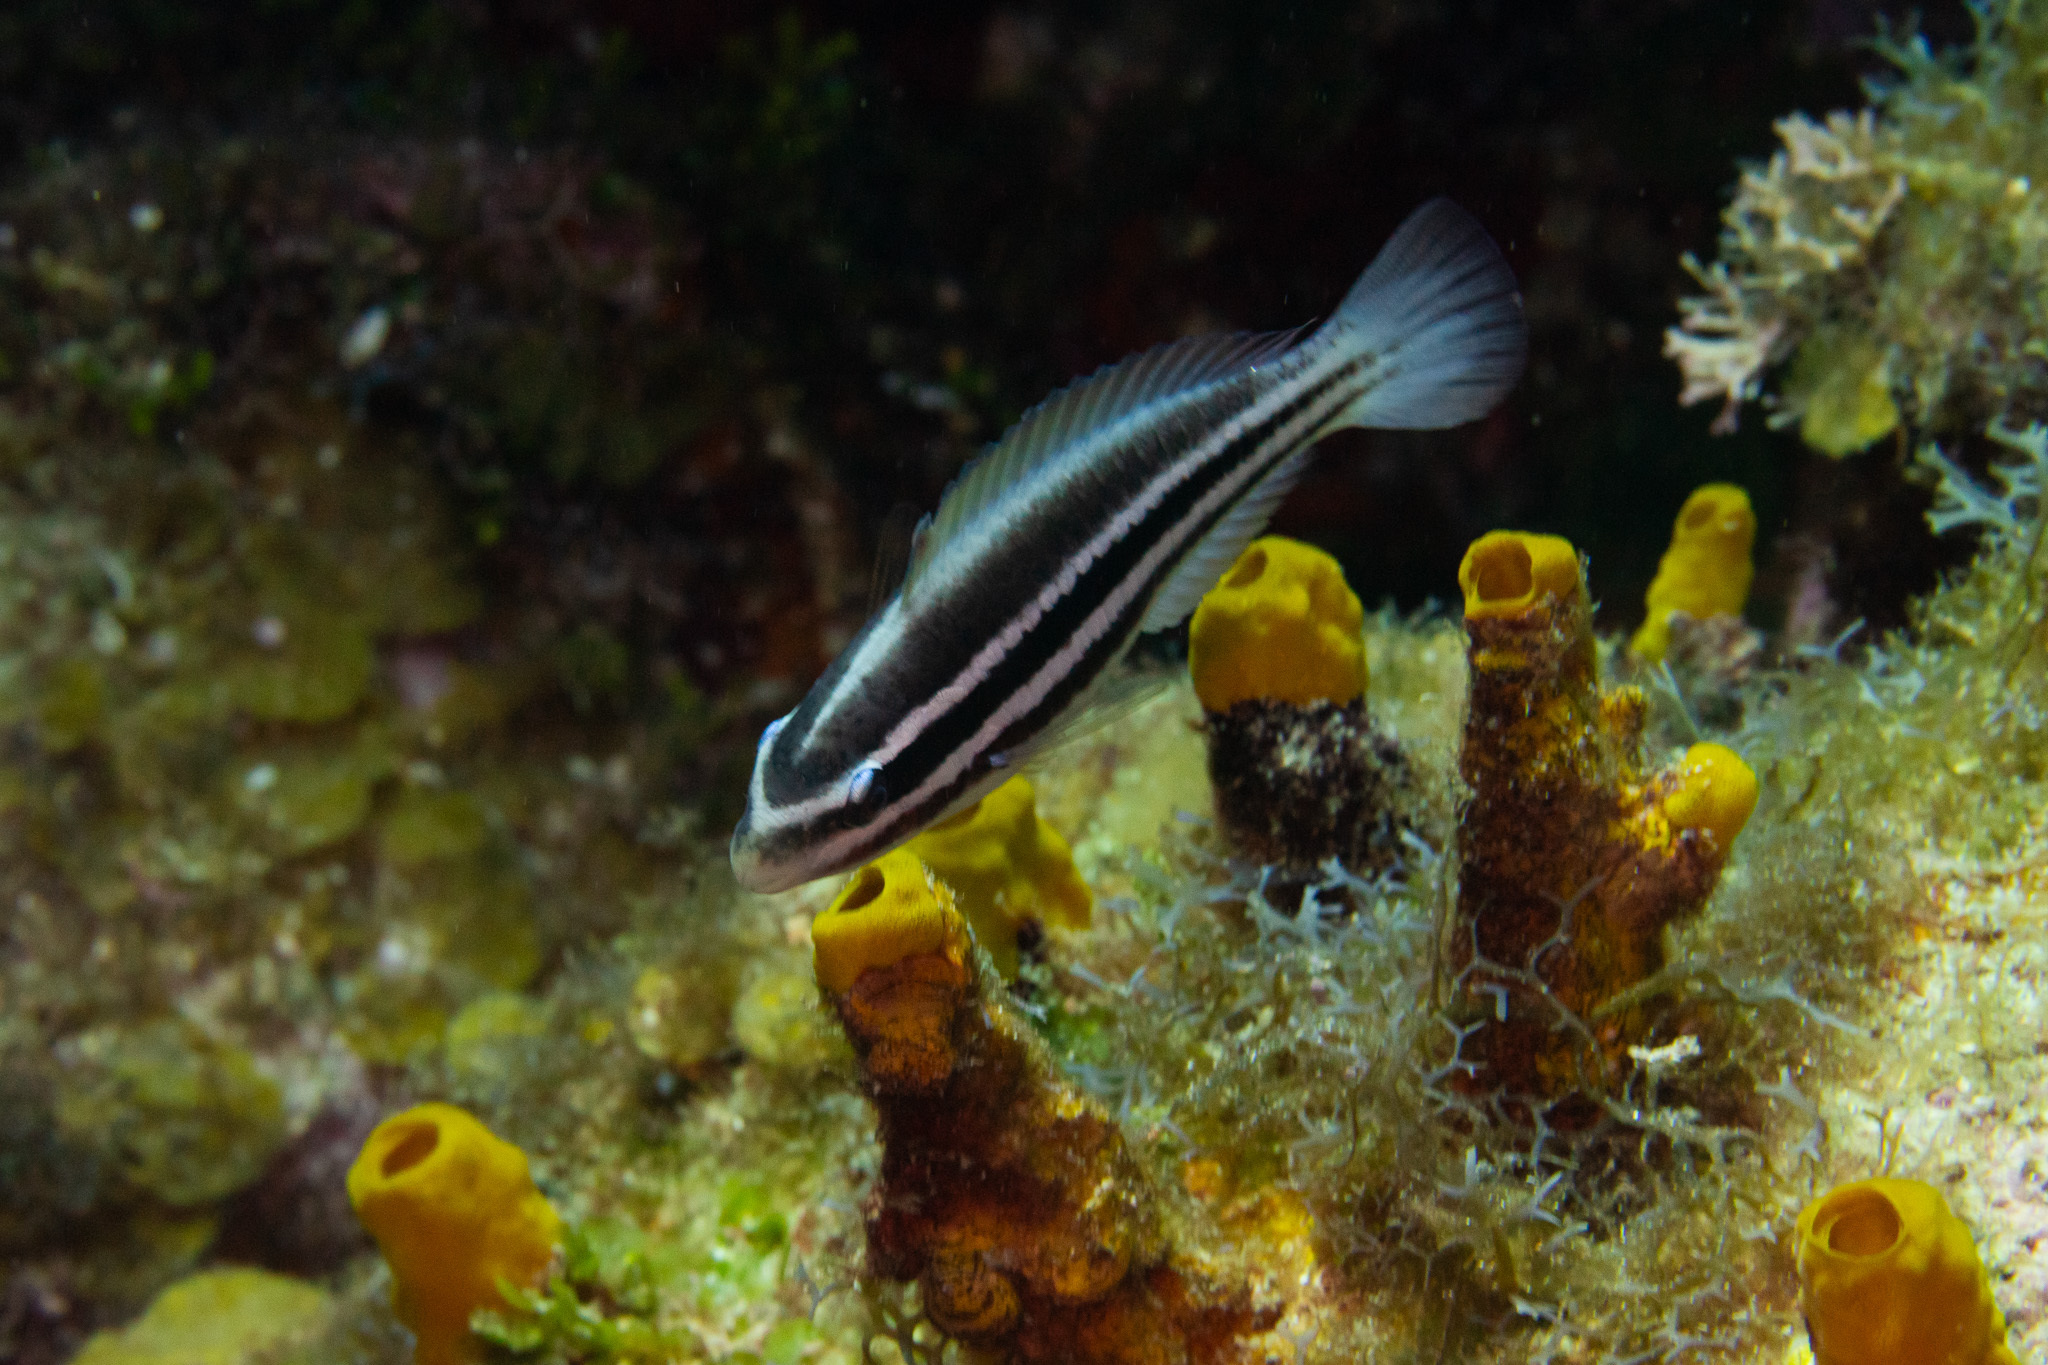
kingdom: Animalia
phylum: Chordata
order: Perciformes
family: Scaridae
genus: Scarus
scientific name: Scarus iseri
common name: Striped parrotfish
